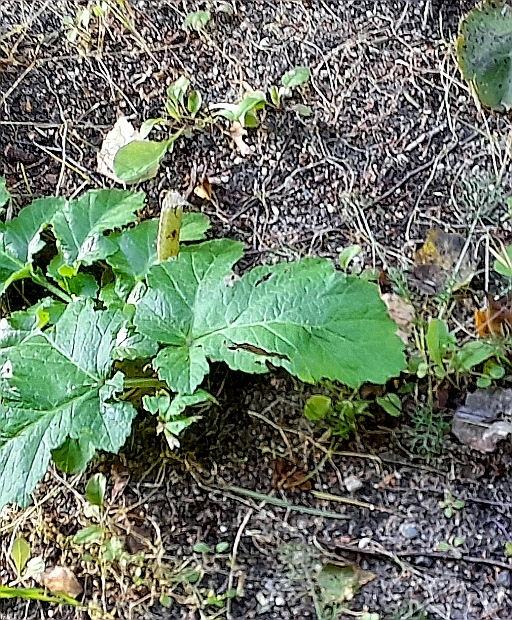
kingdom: Plantae
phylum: Tracheophyta
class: Magnoliopsida
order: Apiales
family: Apiaceae
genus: Heracleum
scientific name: Heracleum sosnowskyi
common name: Sosnowsky's hogweed
